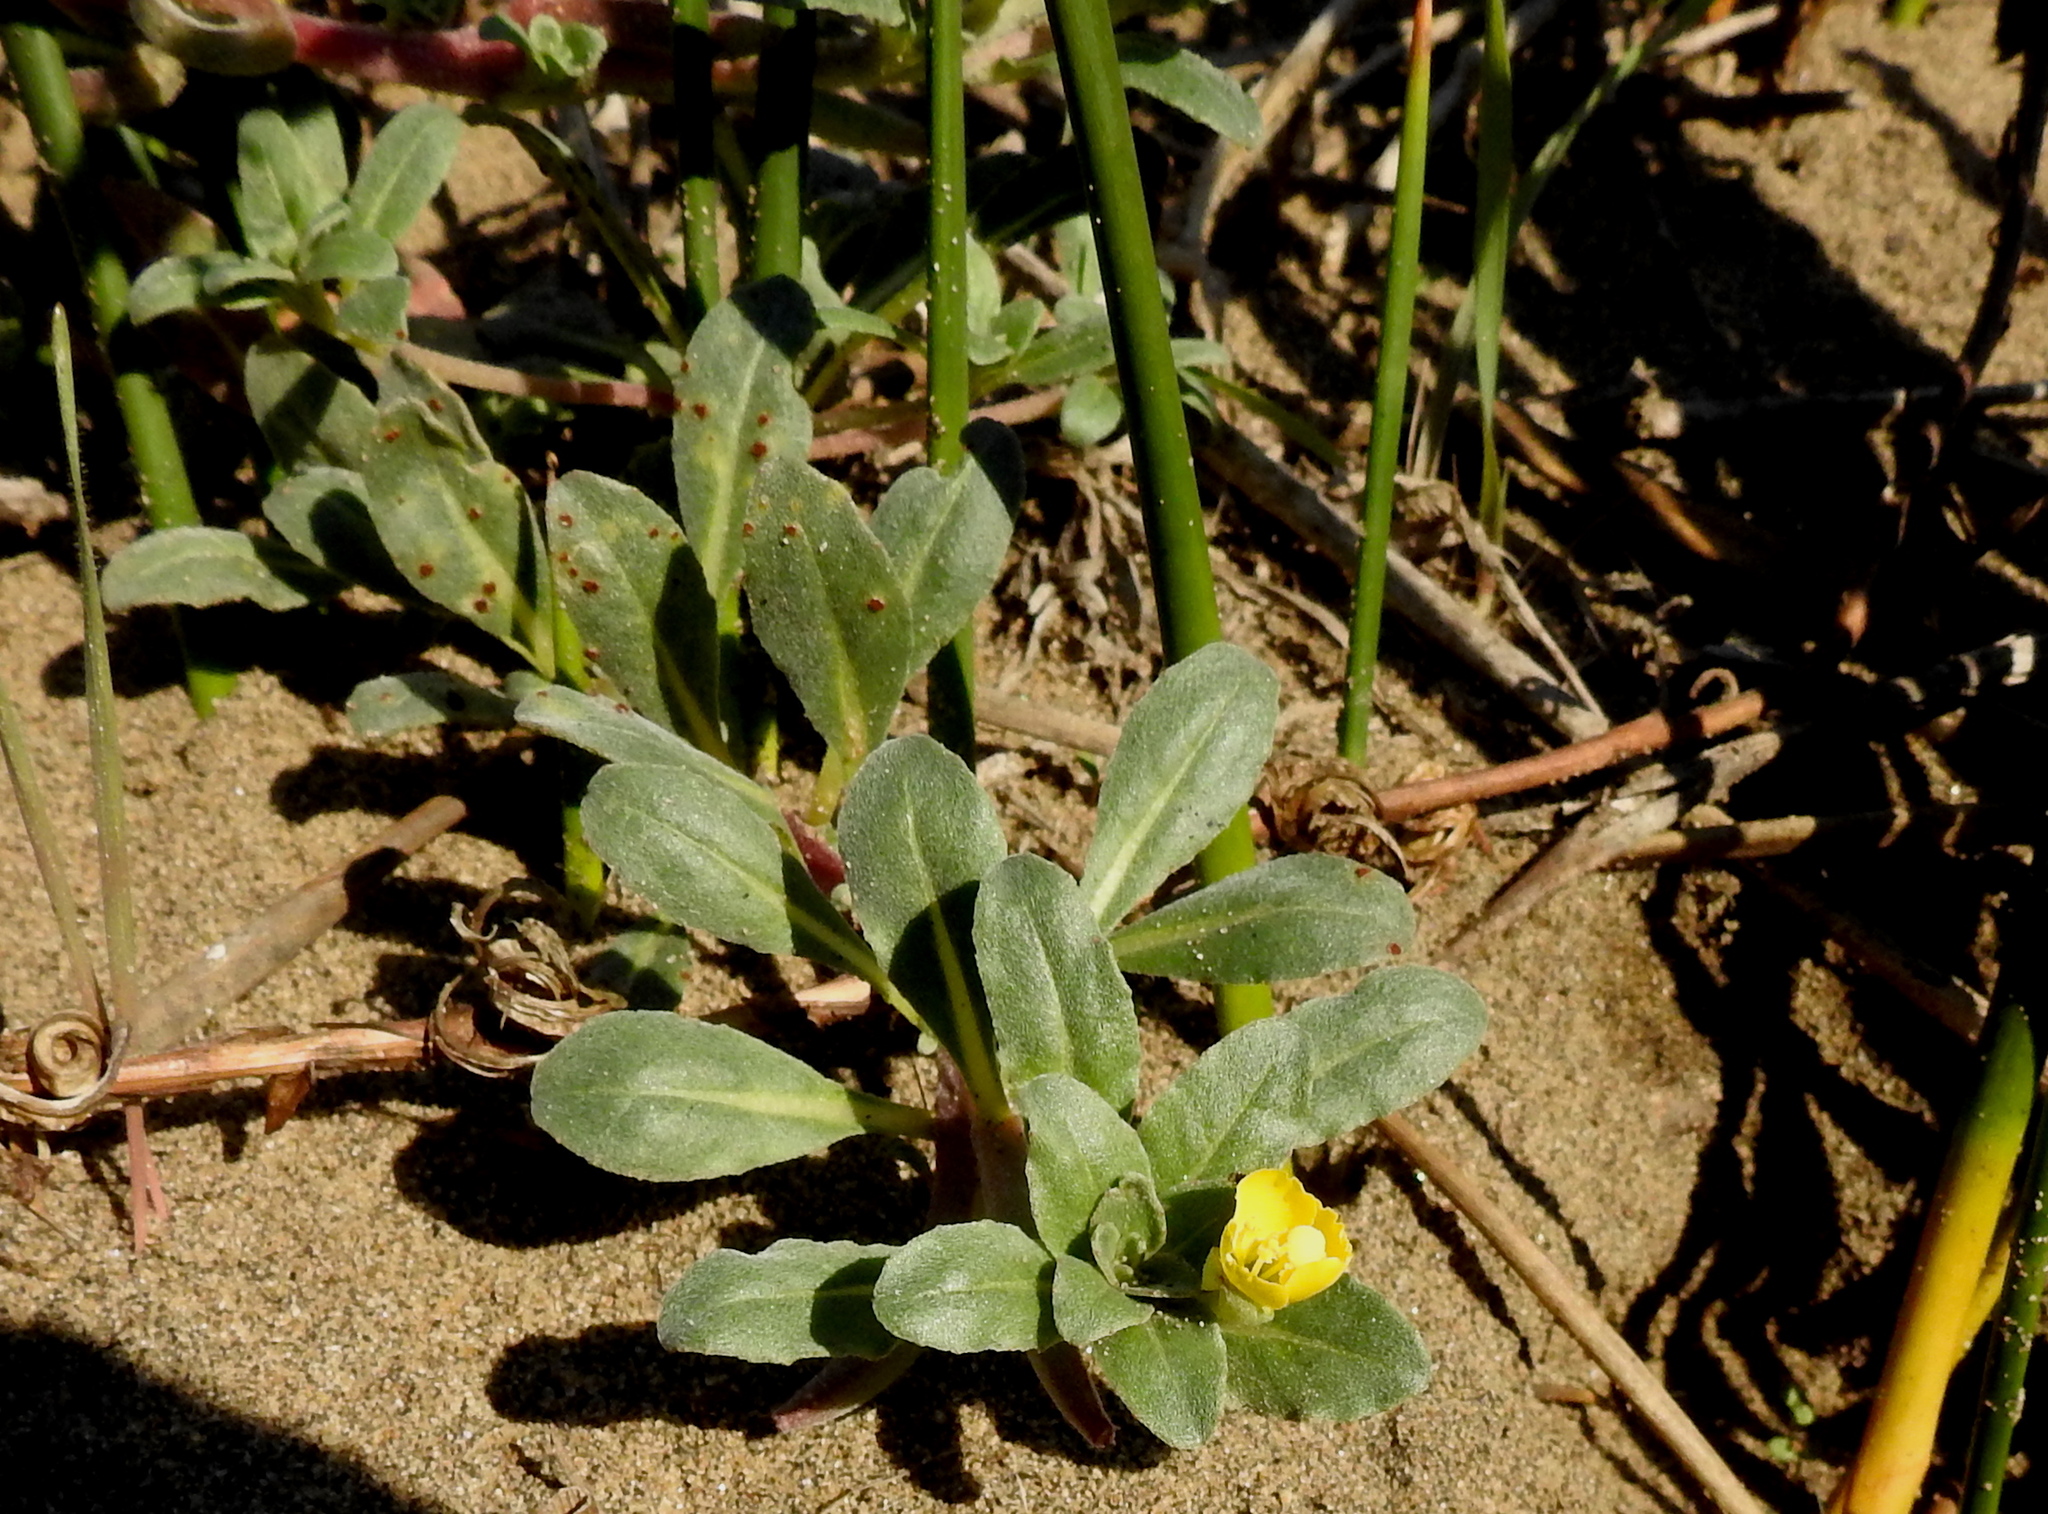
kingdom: Plantae
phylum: Tracheophyta
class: Magnoliopsida
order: Myrtales
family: Onagraceae
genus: Camissoniopsis
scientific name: Camissoniopsis cheiranthifolia
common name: Beach suncup
